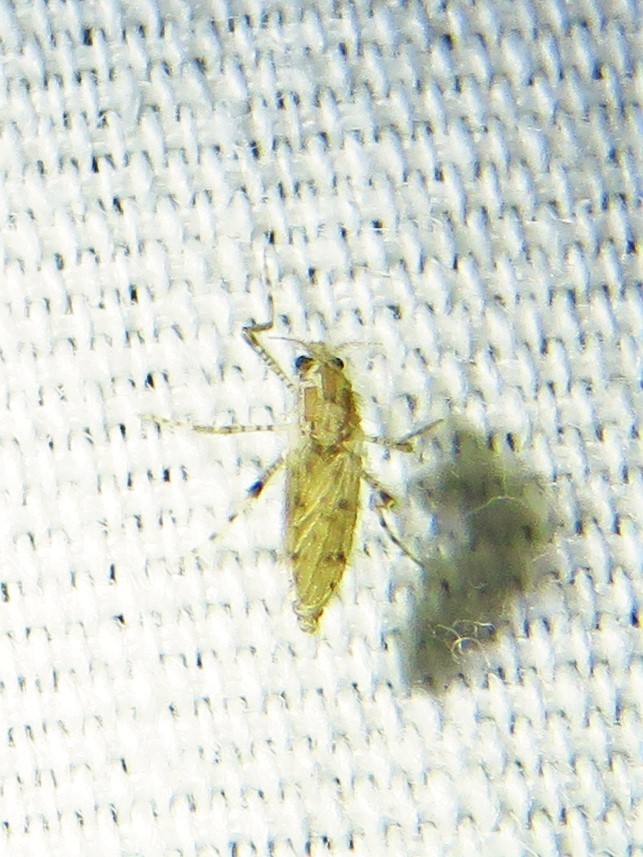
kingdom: Animalia
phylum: Arthropoda
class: Insecta
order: Diptera
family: Chaoboridae
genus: Chaoborus
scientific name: Chaoborus punctipennis
